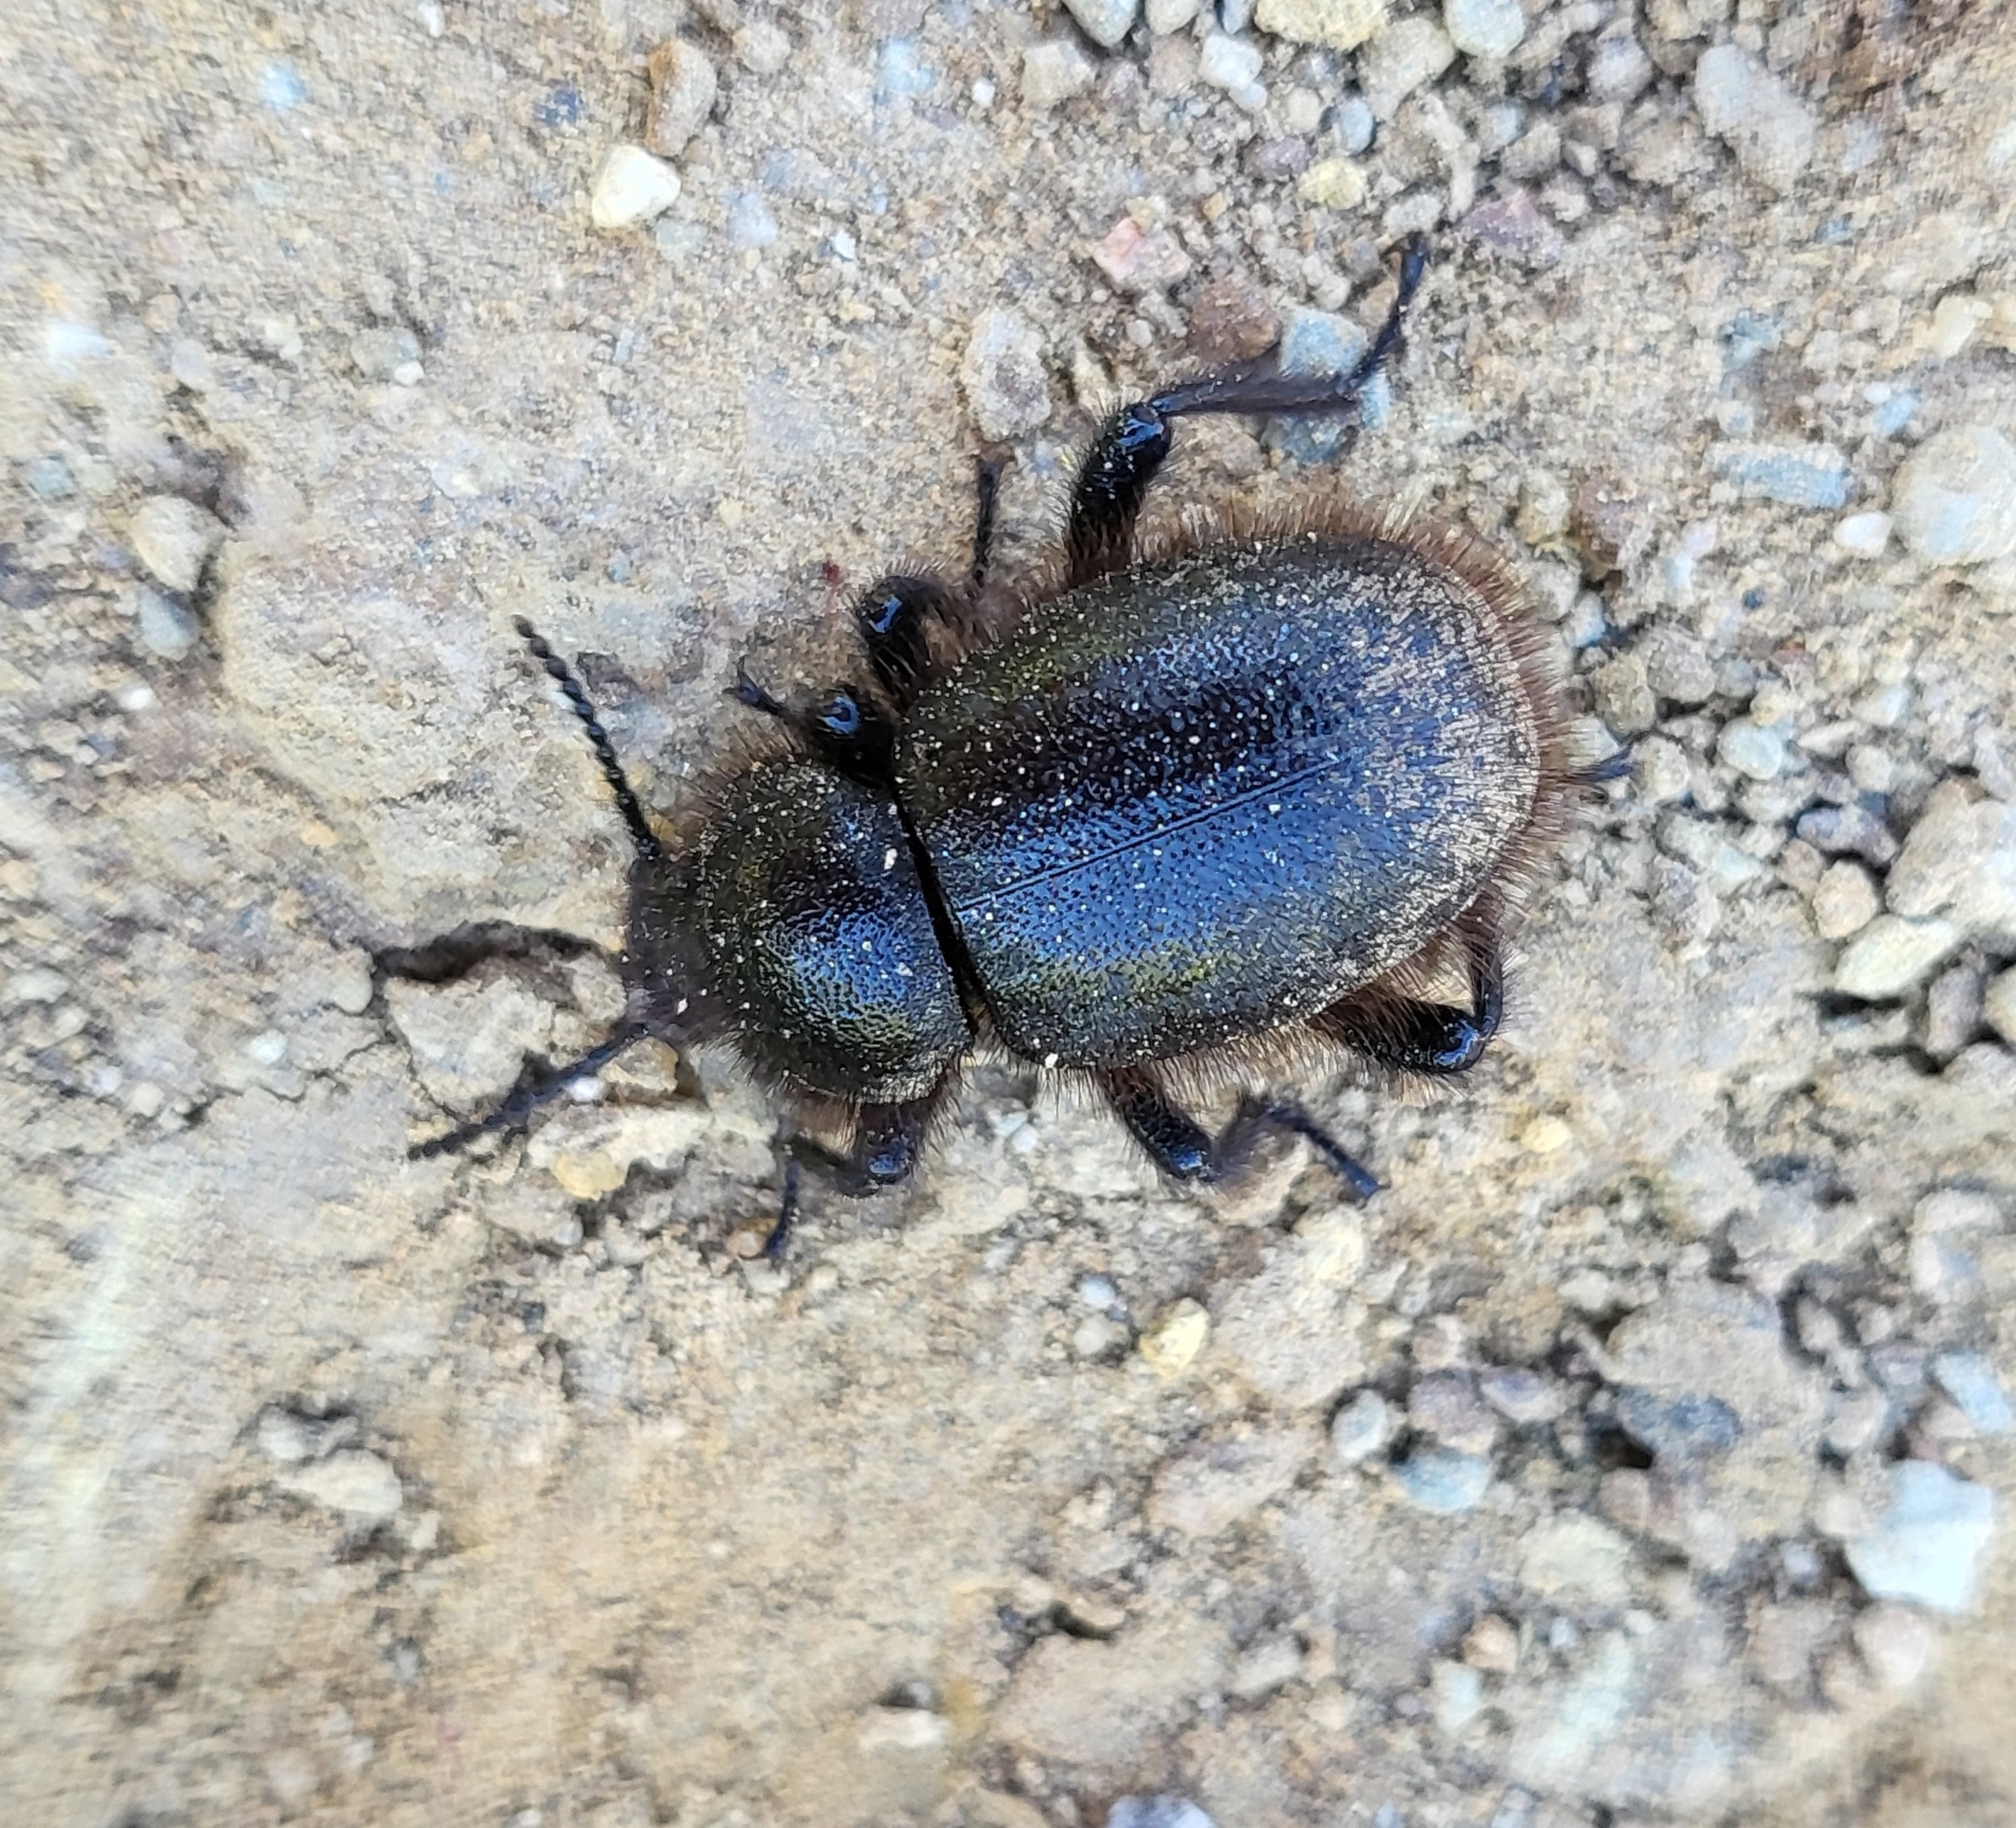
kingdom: Animalia
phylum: Arthropoda
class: Insecta
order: Coleoptera
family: Tenebrionidae
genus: Eleodes
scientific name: Eleodes osculans
